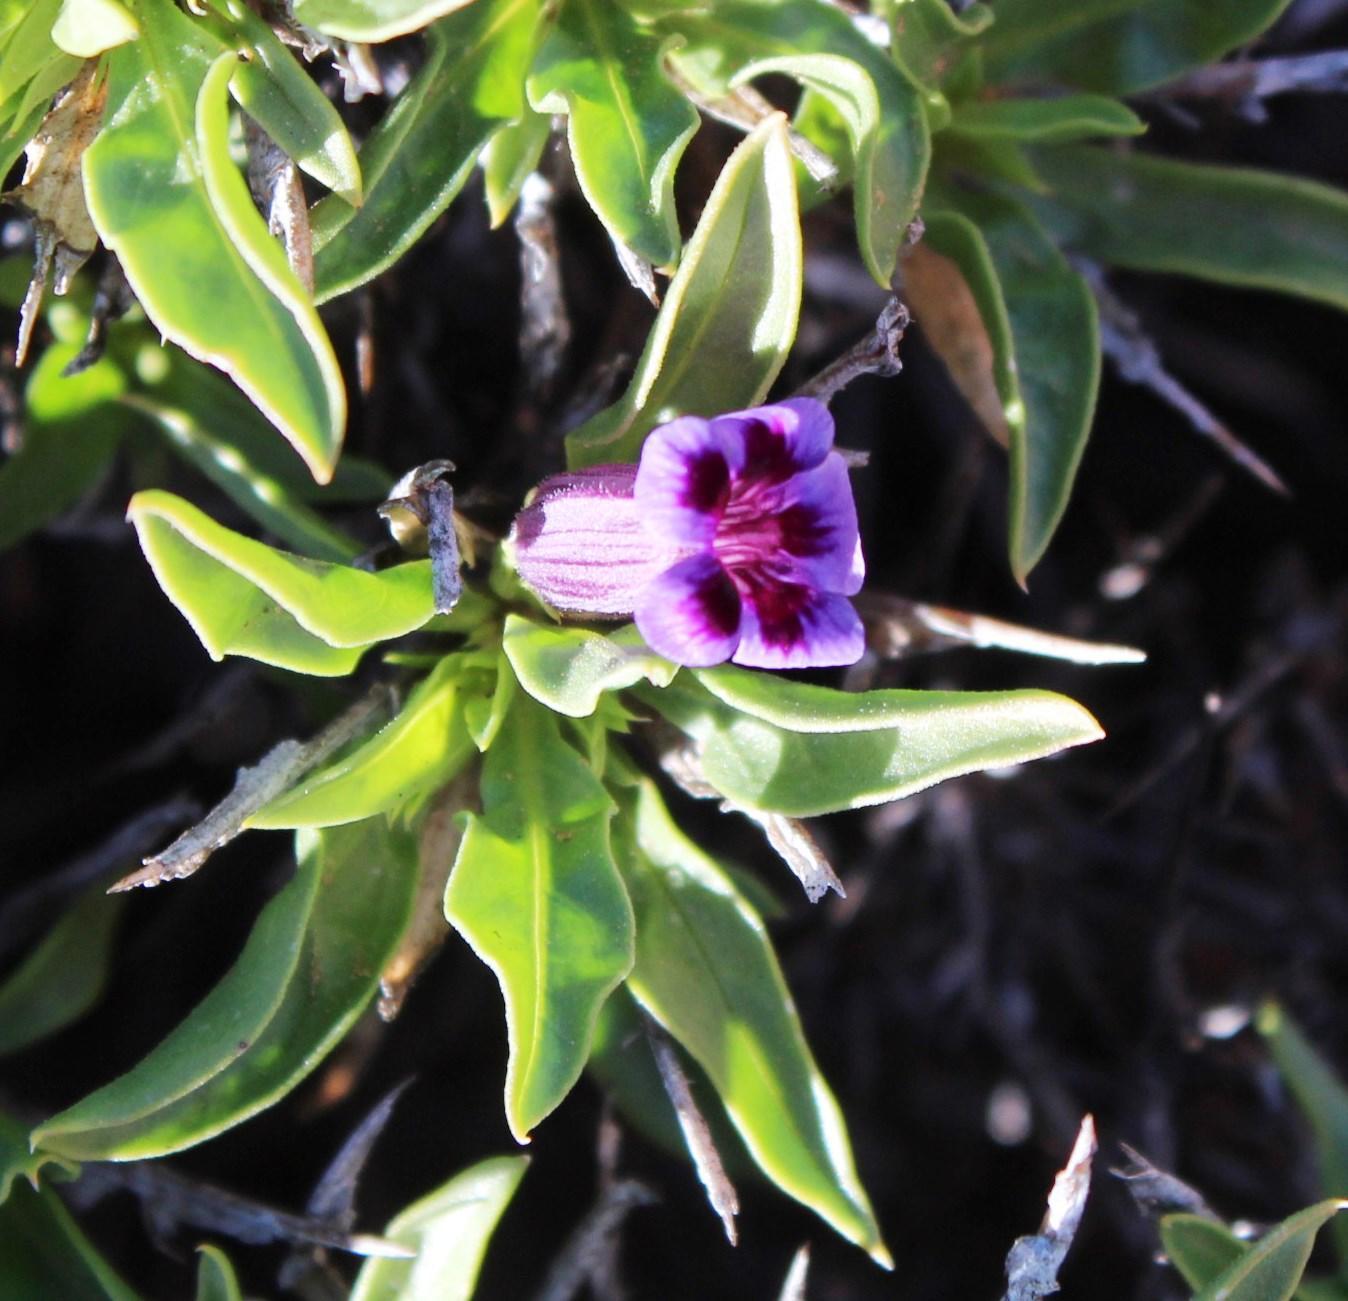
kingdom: Plantae
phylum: Tracheophyta
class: Magnoliopsida
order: Lamiales
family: Scrophulariaceae
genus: Aptosimum
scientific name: Aptosimum viscosum
